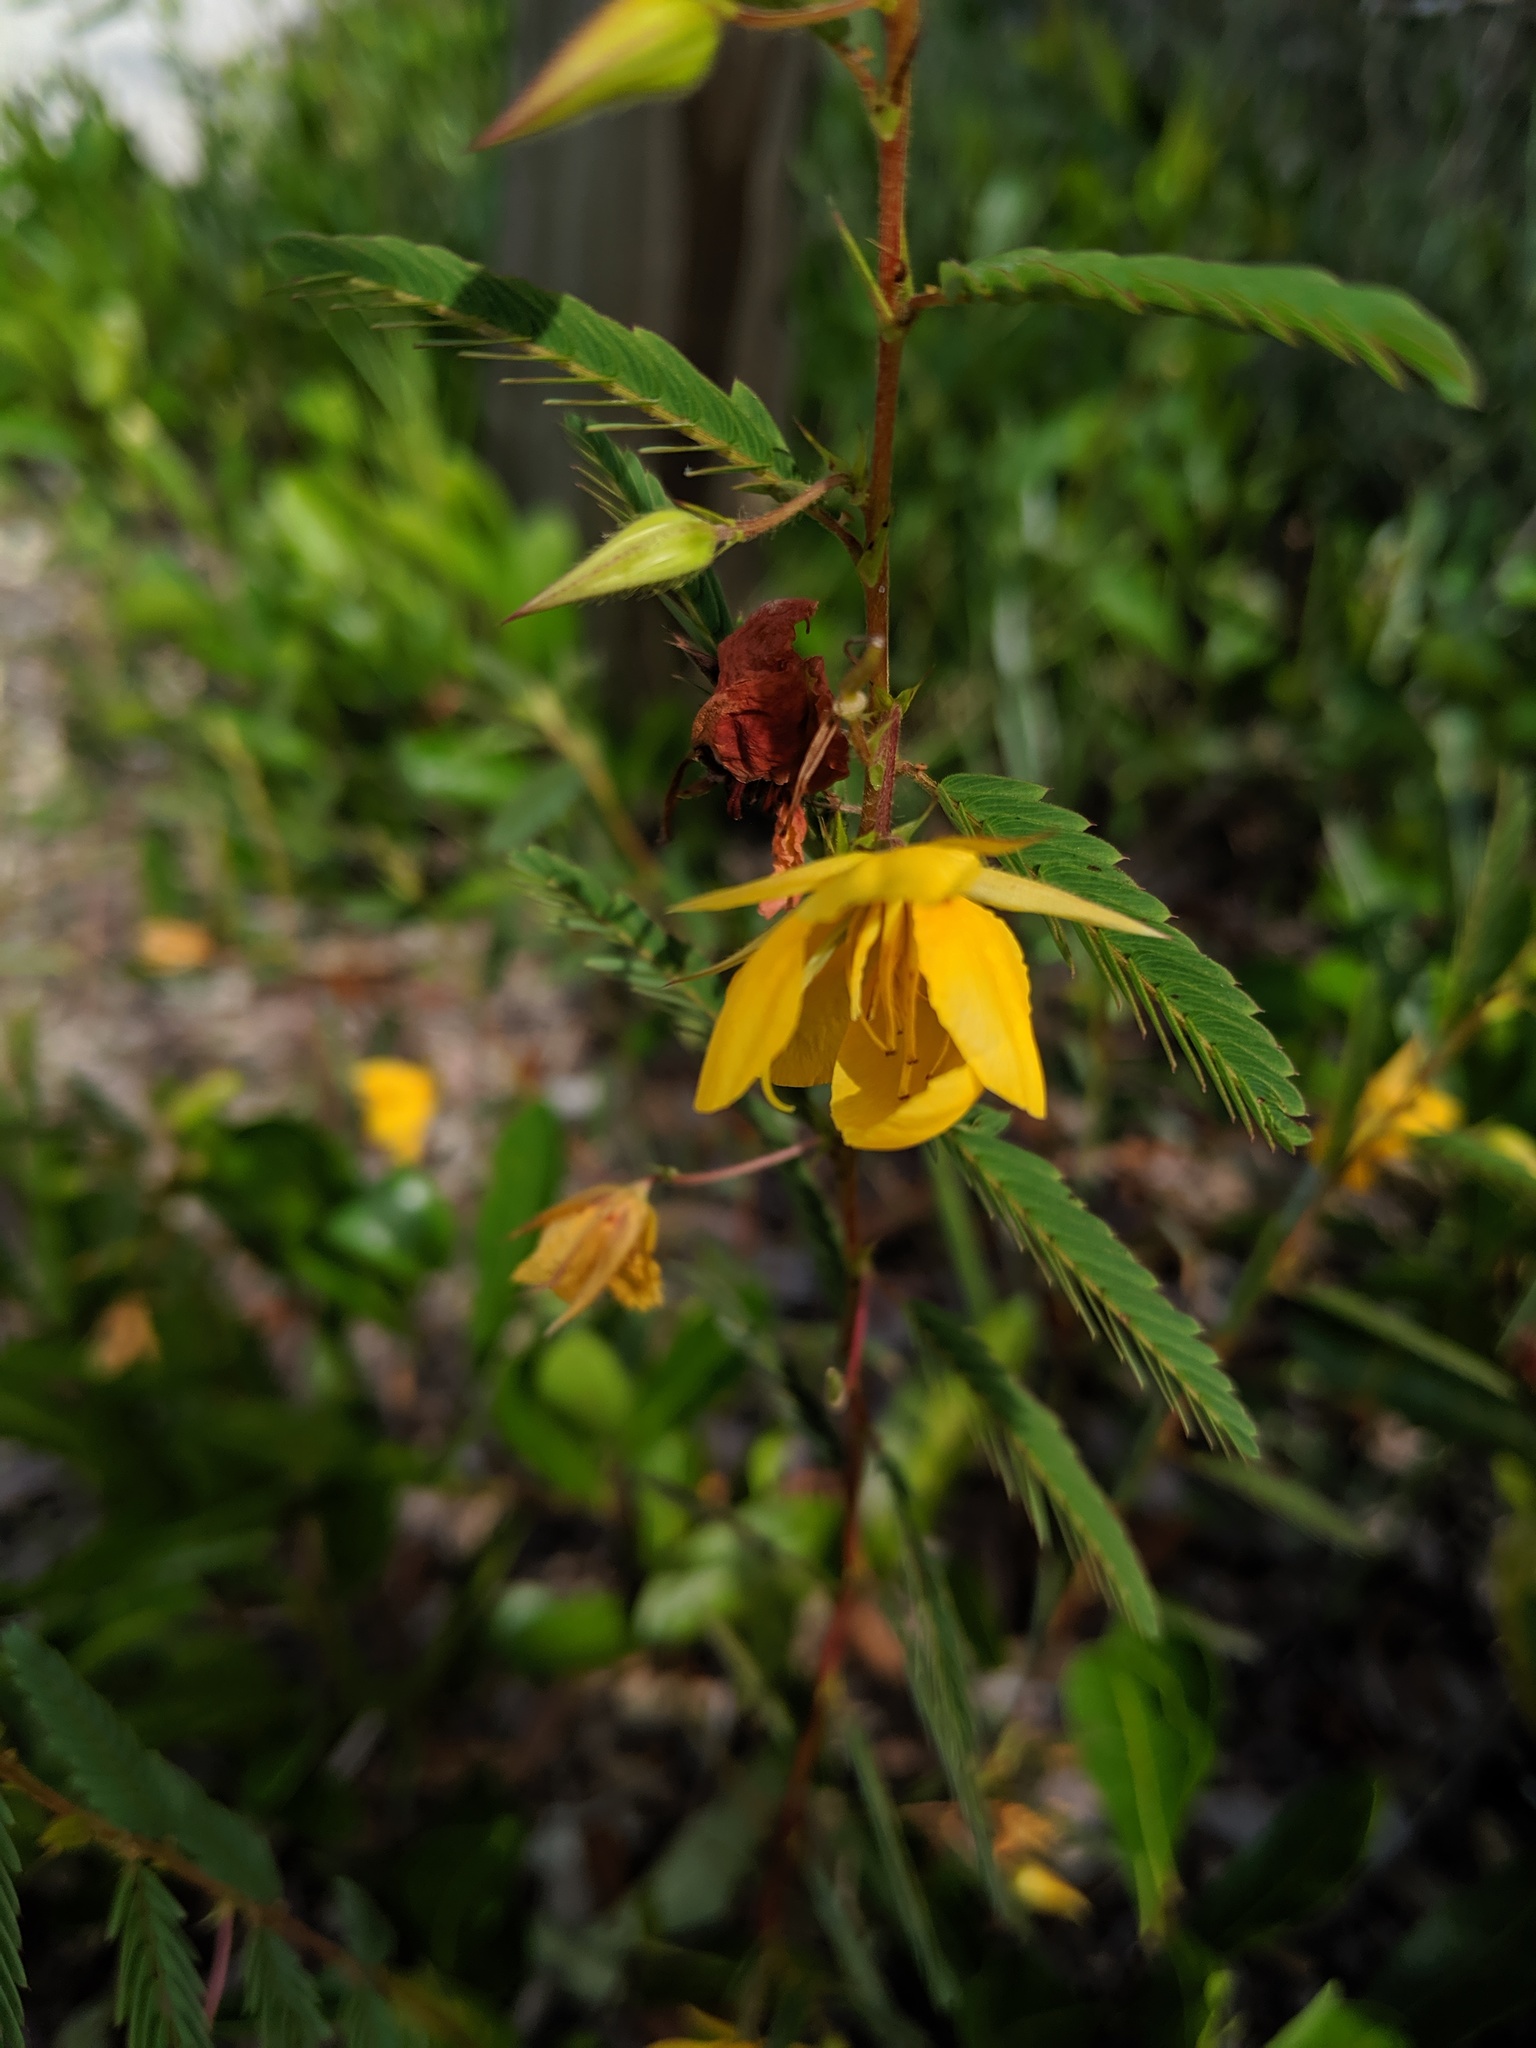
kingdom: Plantae
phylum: Tracheophyta
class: Magnoliopsida
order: Fabales
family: Fabaceae
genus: Chamaecrista
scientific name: Chamaecrista fasciculata
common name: Golden cassia
